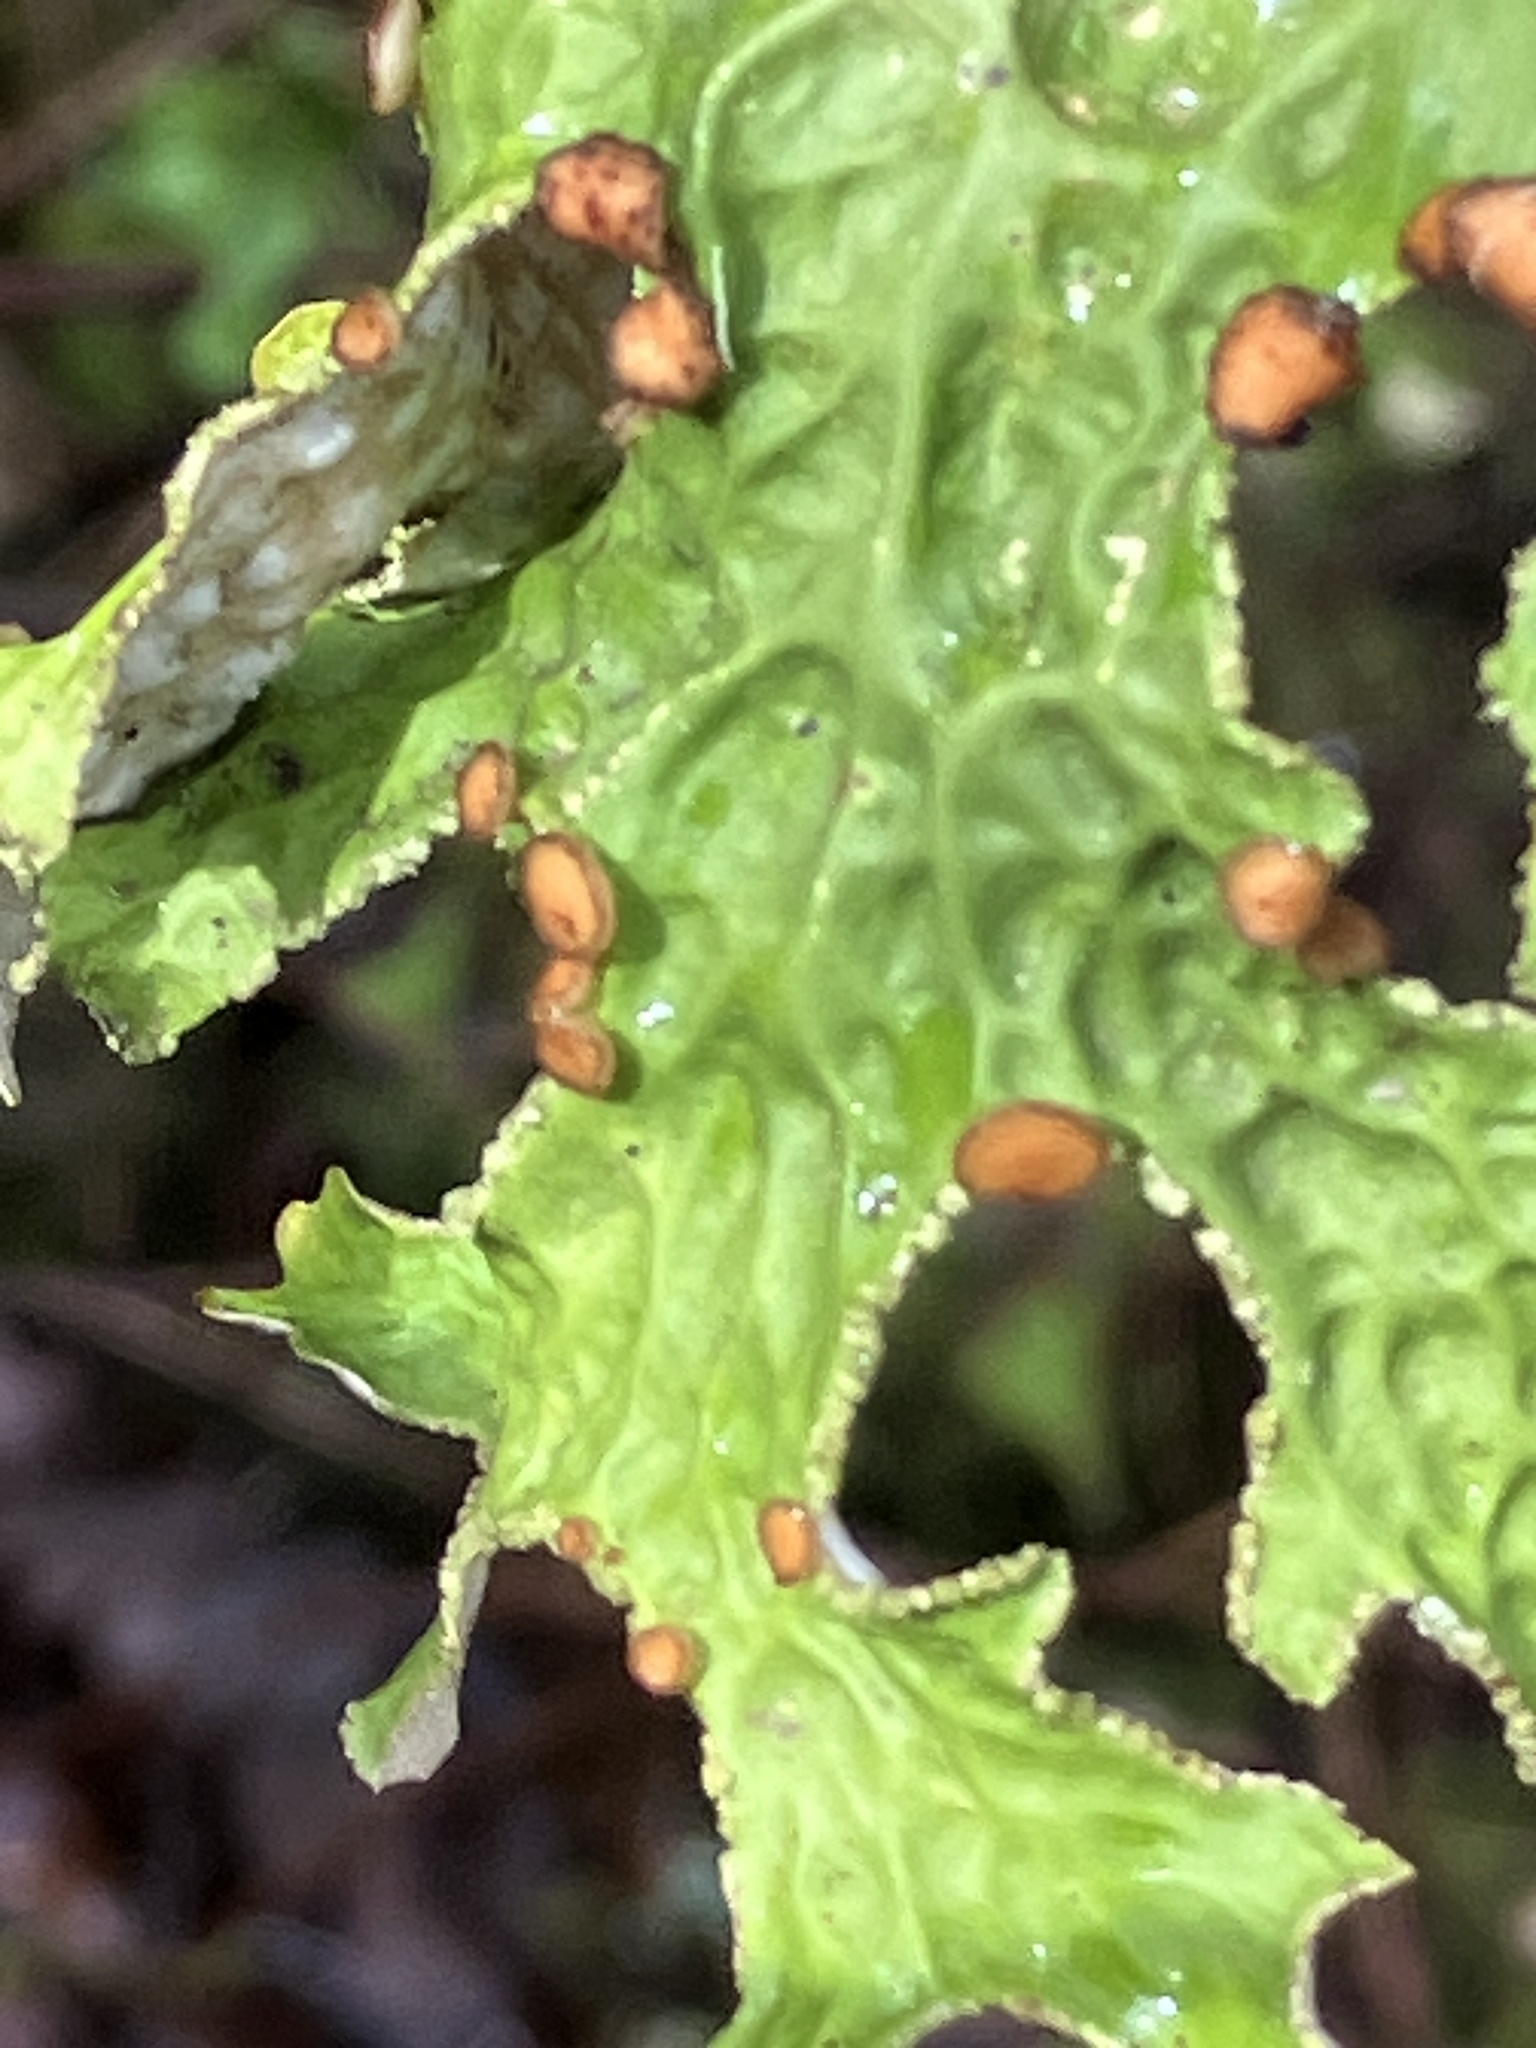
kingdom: Fungi
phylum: Ascomycota
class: Lecanoromycetes
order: Peltigerales
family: Lobariaceae
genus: Lobaria
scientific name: Lobaria pulmonaria
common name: Lungwort
